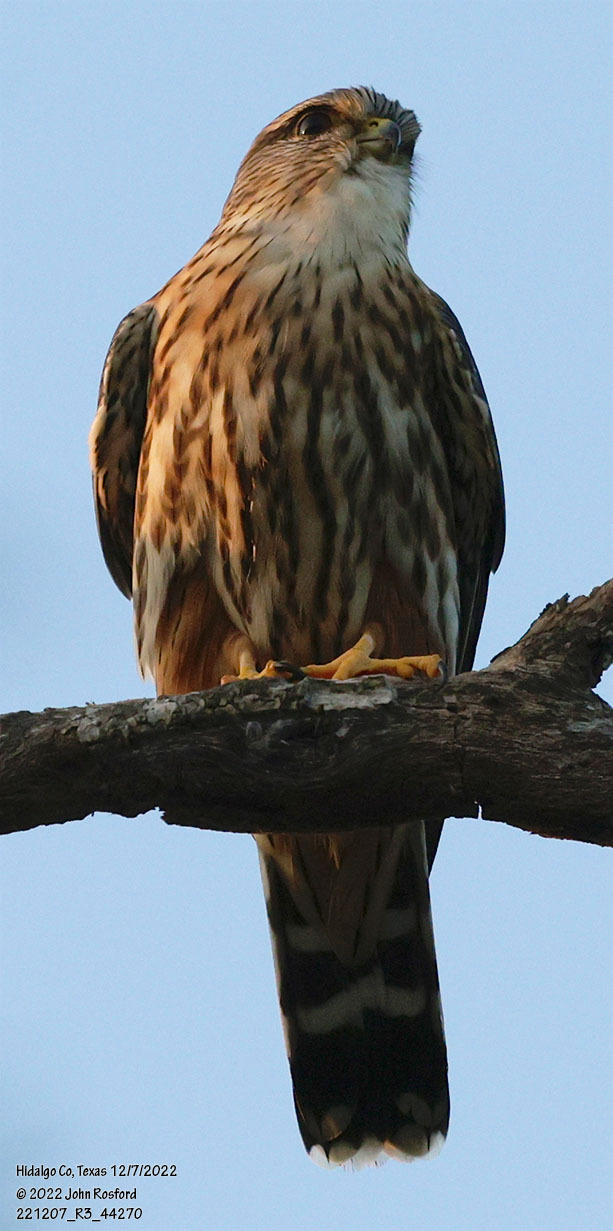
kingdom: Animalia
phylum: Chordata
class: Aves
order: Falconiformes
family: Falconidae
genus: Falco
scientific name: Falco columbarius
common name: Merlin
